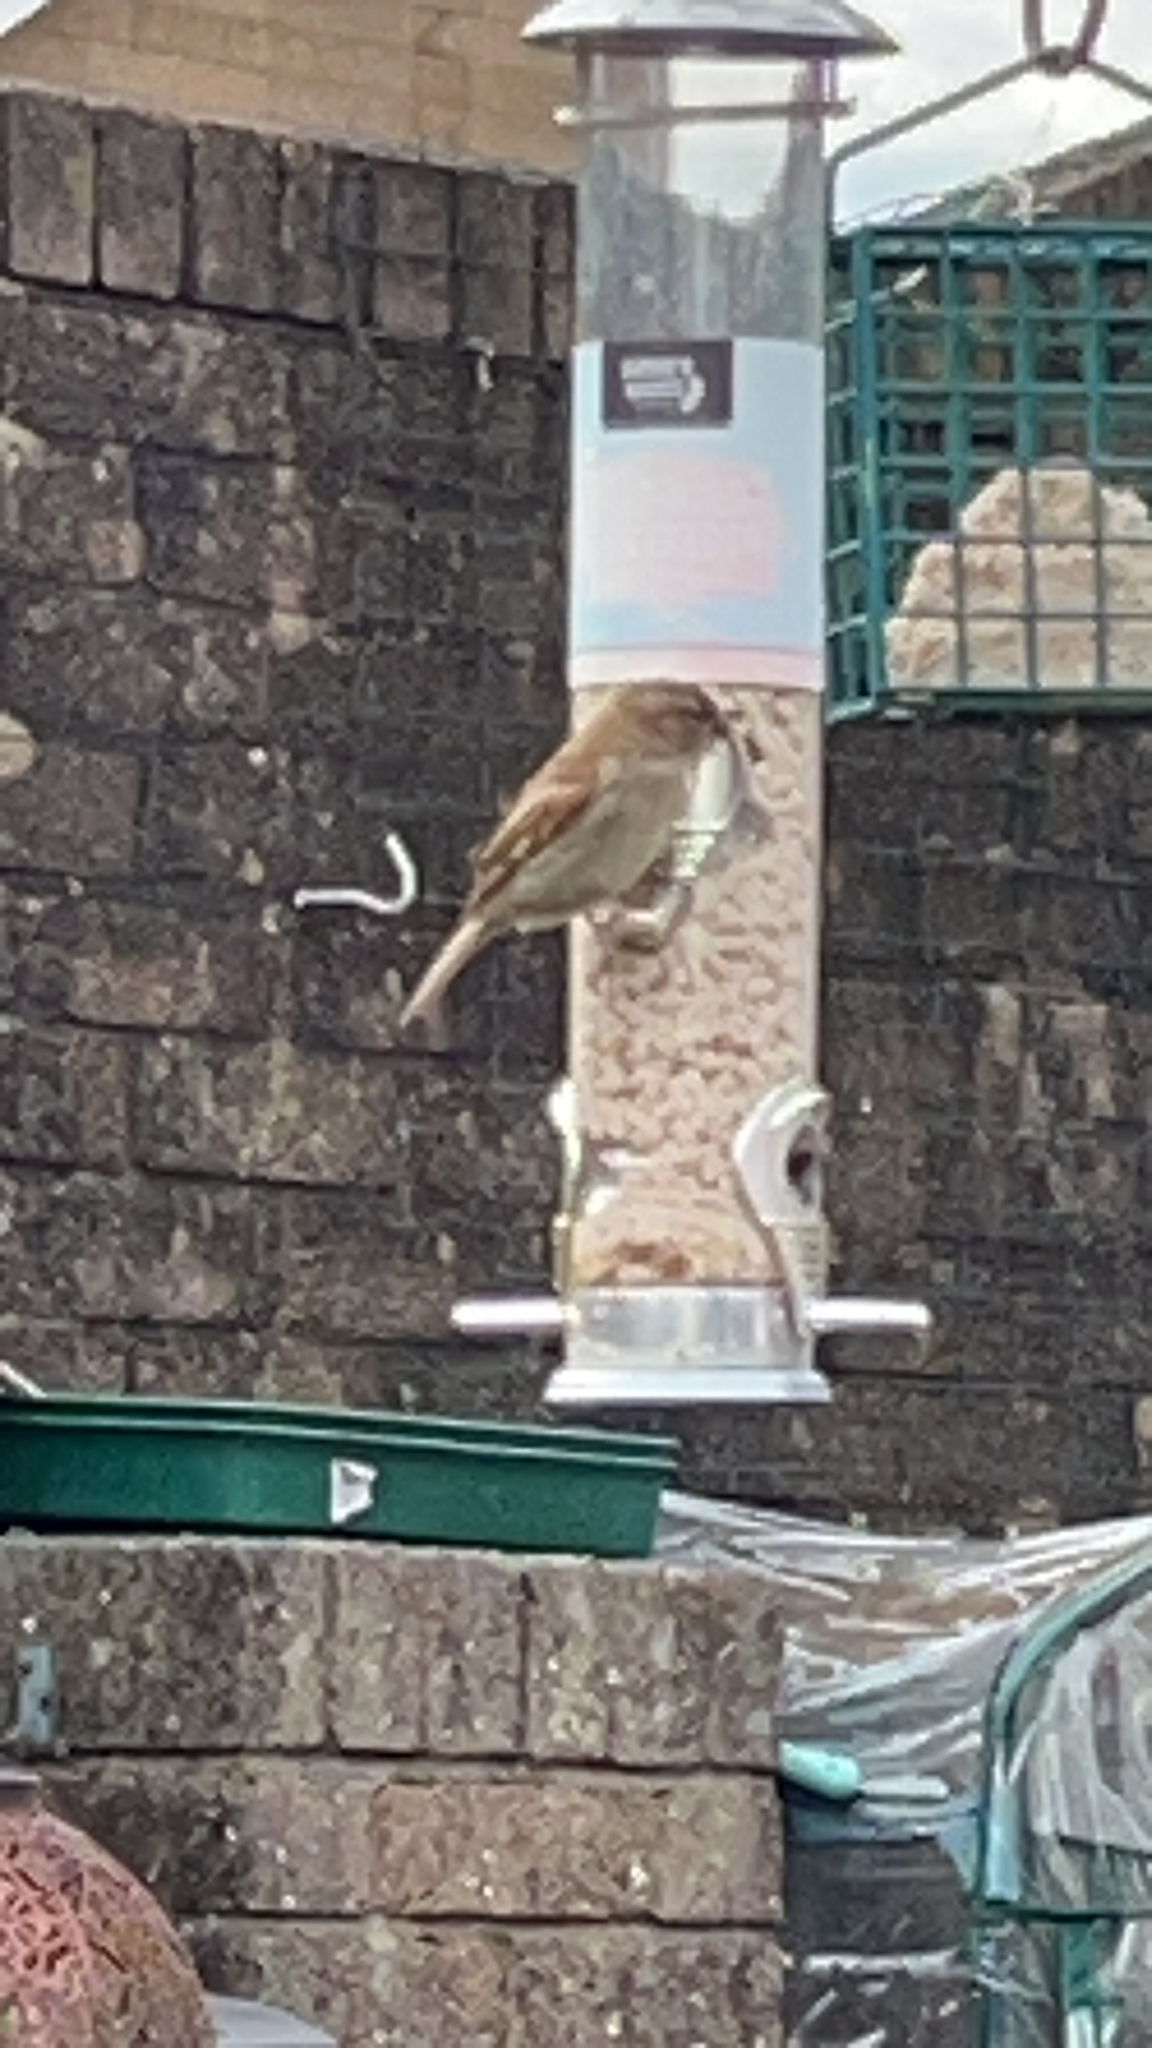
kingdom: Animalia
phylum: Chordata
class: Aves
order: Passeriformes
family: Passeridae
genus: Passer
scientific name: Passer domesticus
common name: House sparrow
